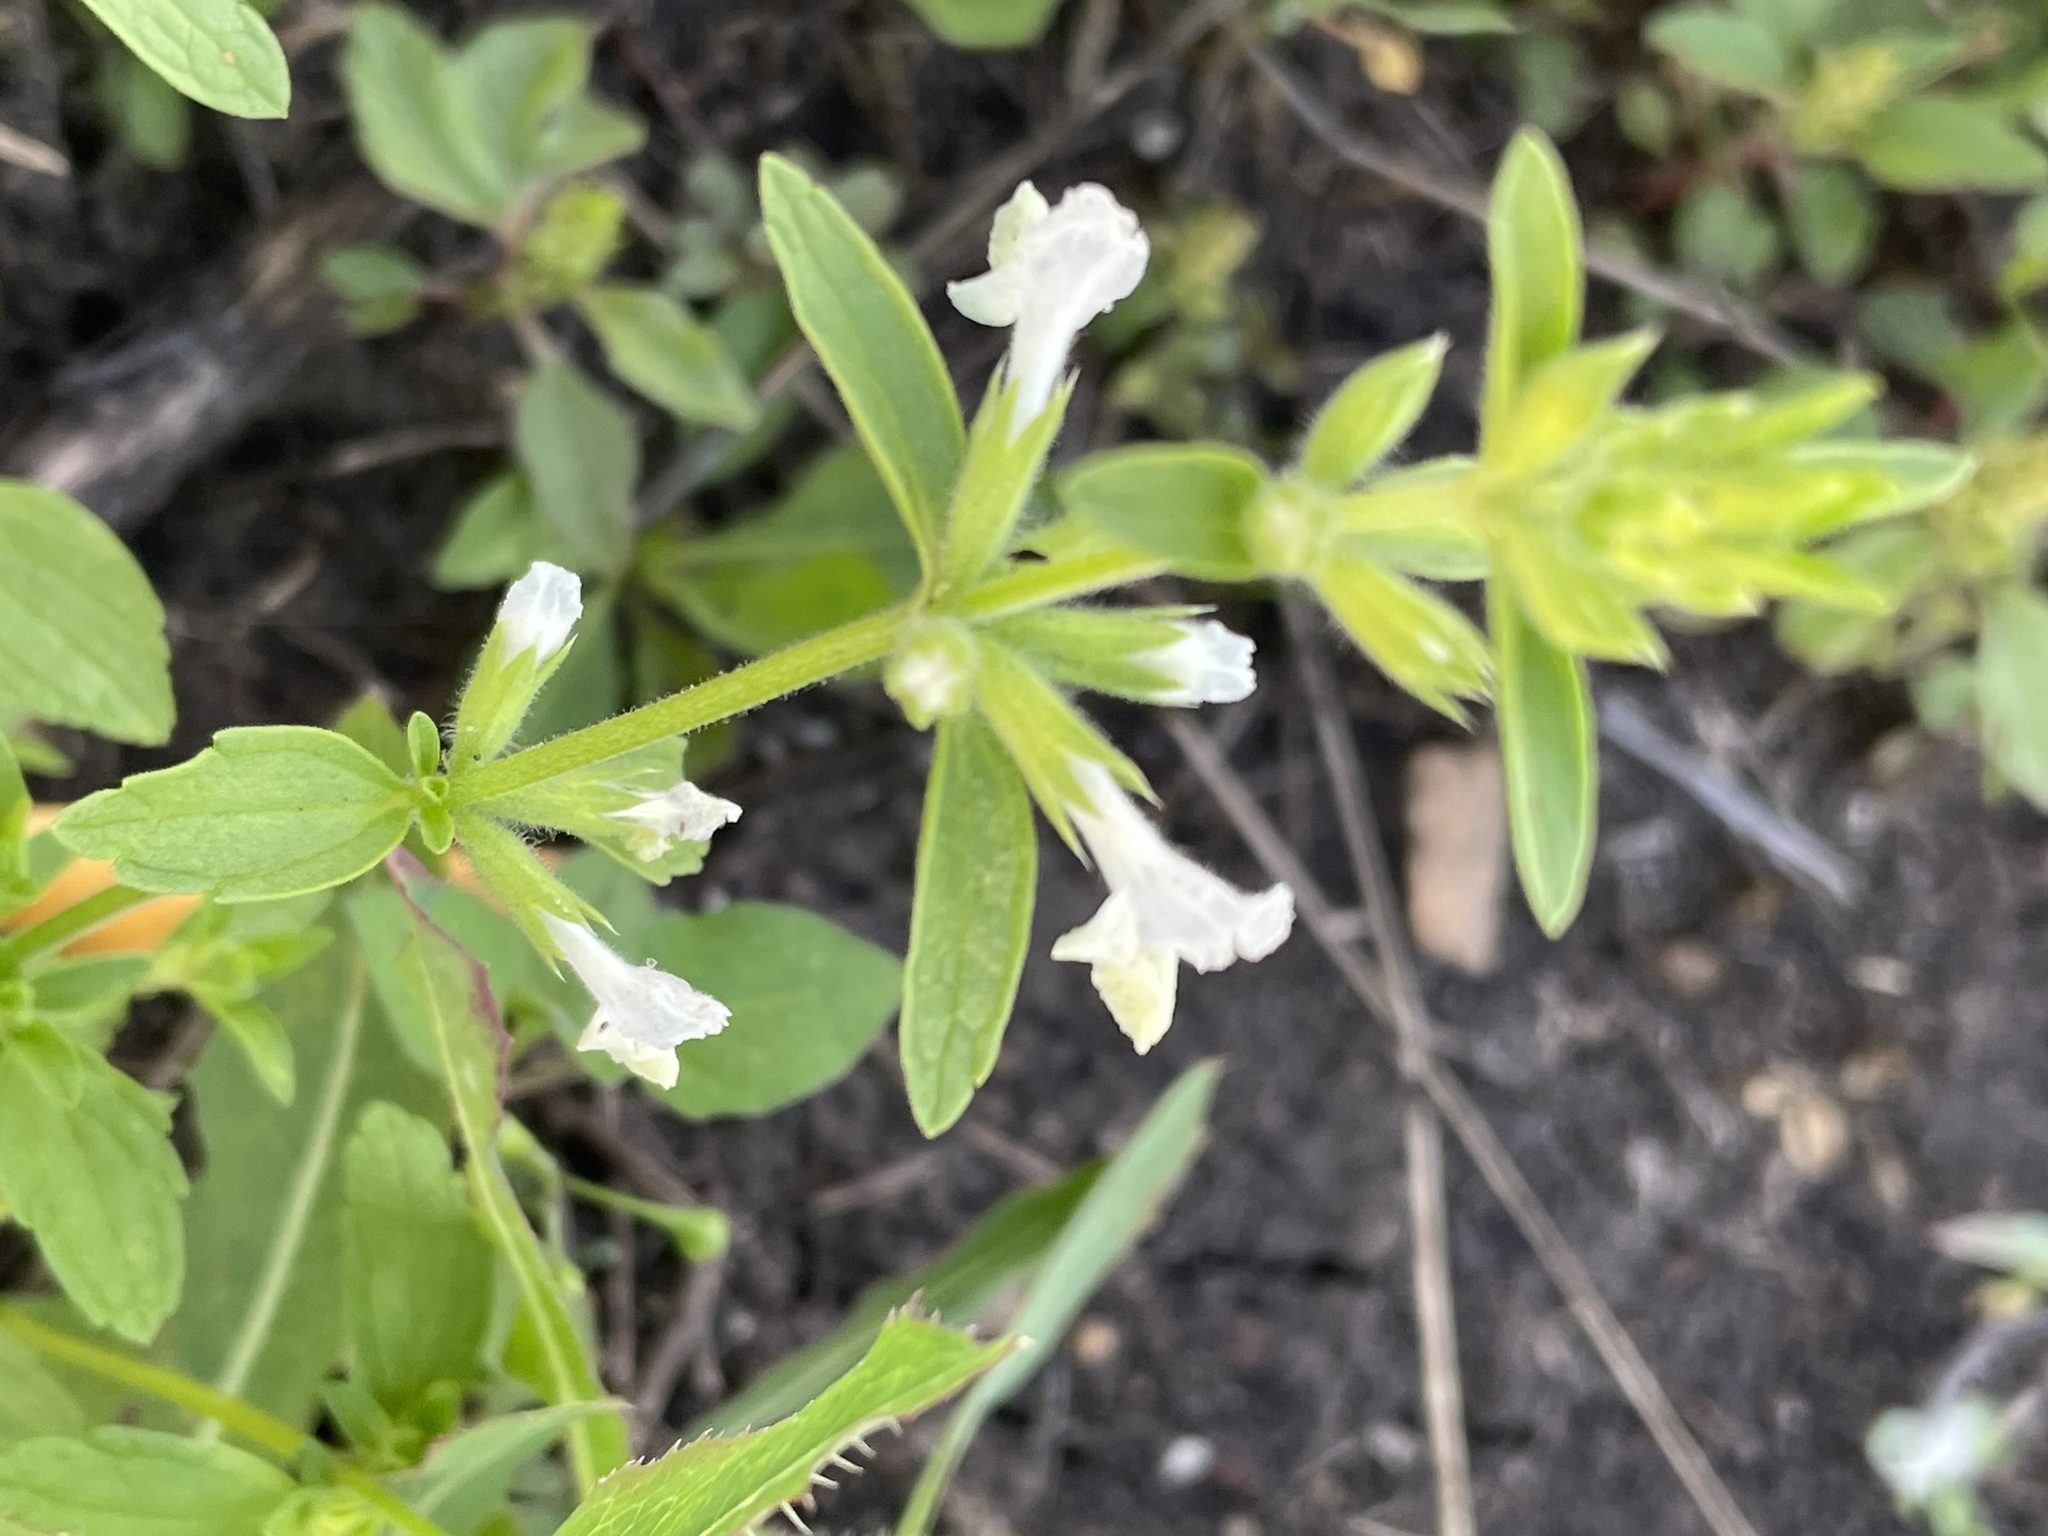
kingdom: Plantae
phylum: Tracheophyta
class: Magnoliopsida
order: Lamiales
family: Lamiaceae
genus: Stachys
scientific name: Stachys annua
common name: Annual yellow-woundwort
